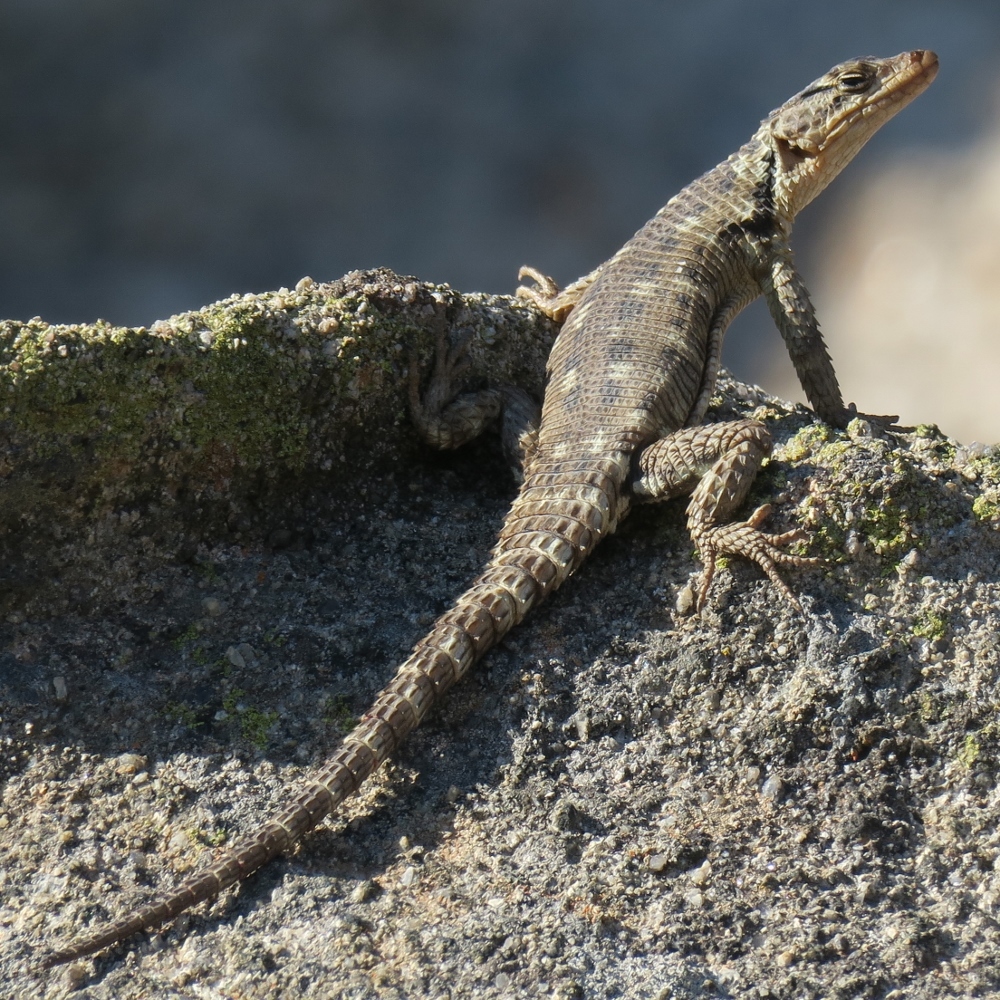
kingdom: Animalia
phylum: Chordata
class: Squamata
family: Cordylidae
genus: Karusasaurus
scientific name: Karusasaurus polyzonus
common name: Karoo girdled lizard
